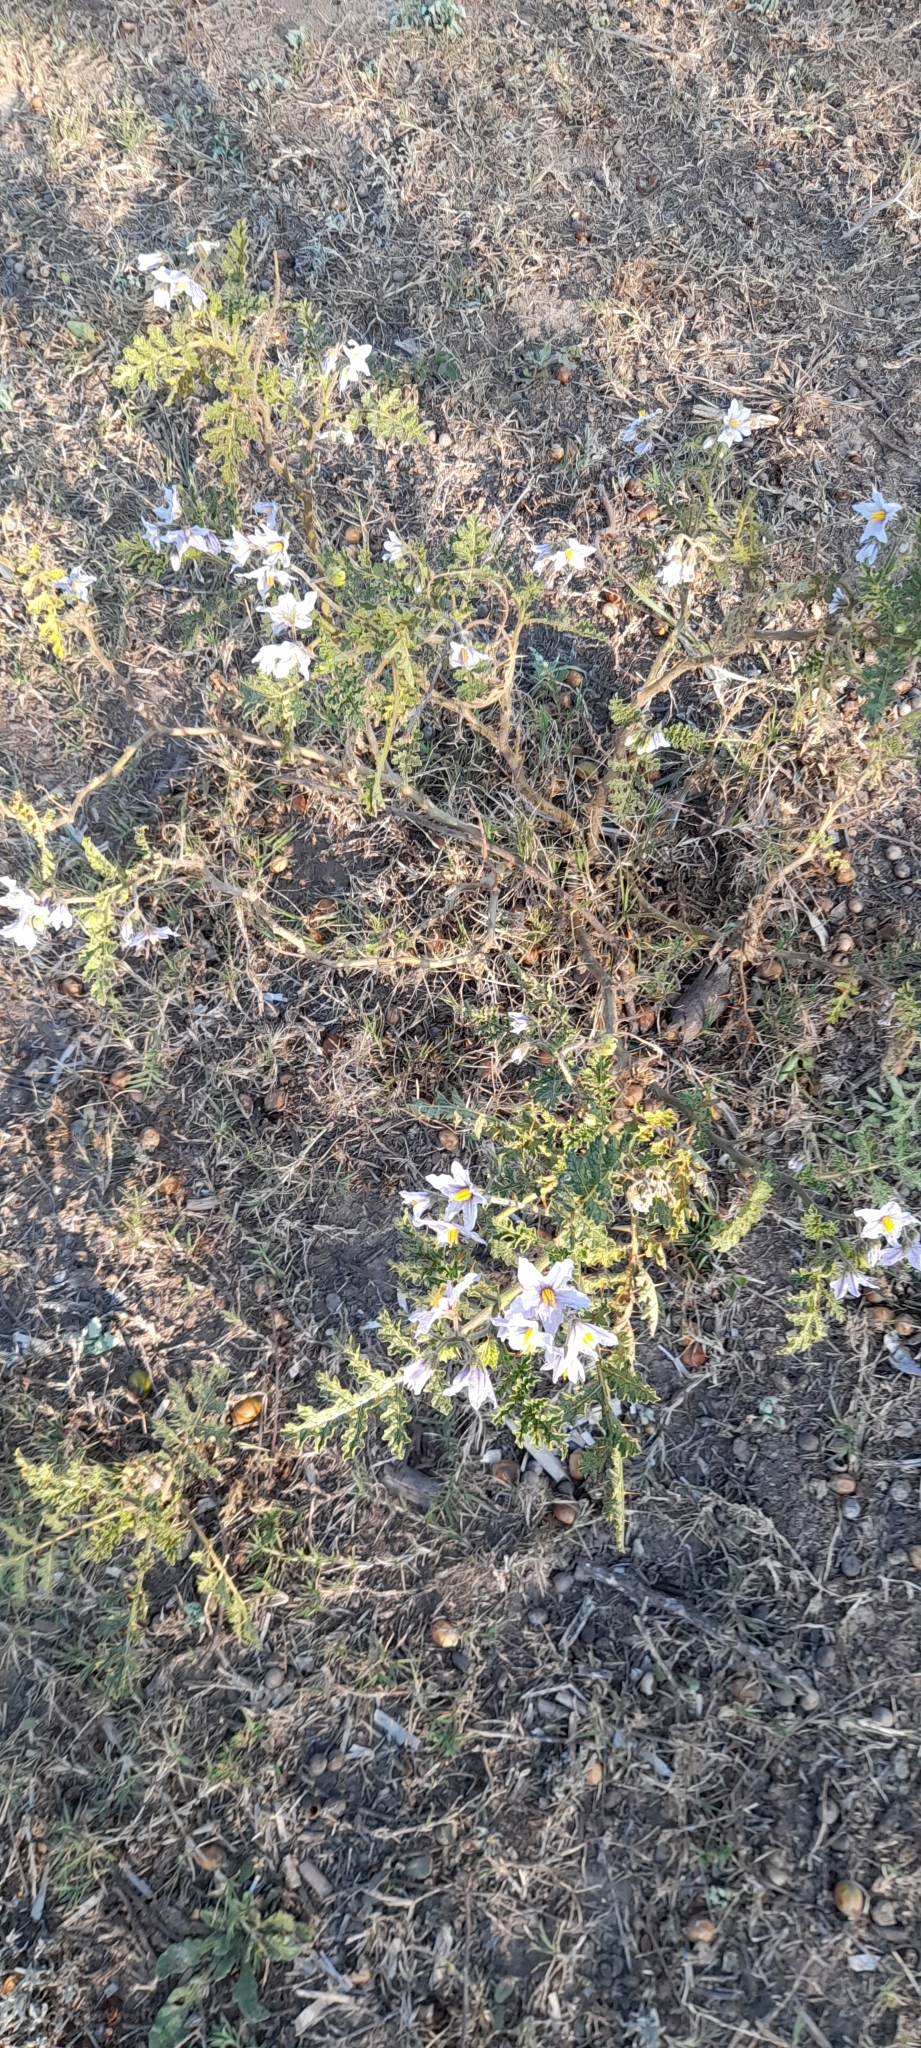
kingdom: Plantae
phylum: Tracheophyta
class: Magnoliopsida
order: Solanales
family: Solanaceae
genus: Solanum
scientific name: Solanum sisymbriifolium
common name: Red buffalo-bur
